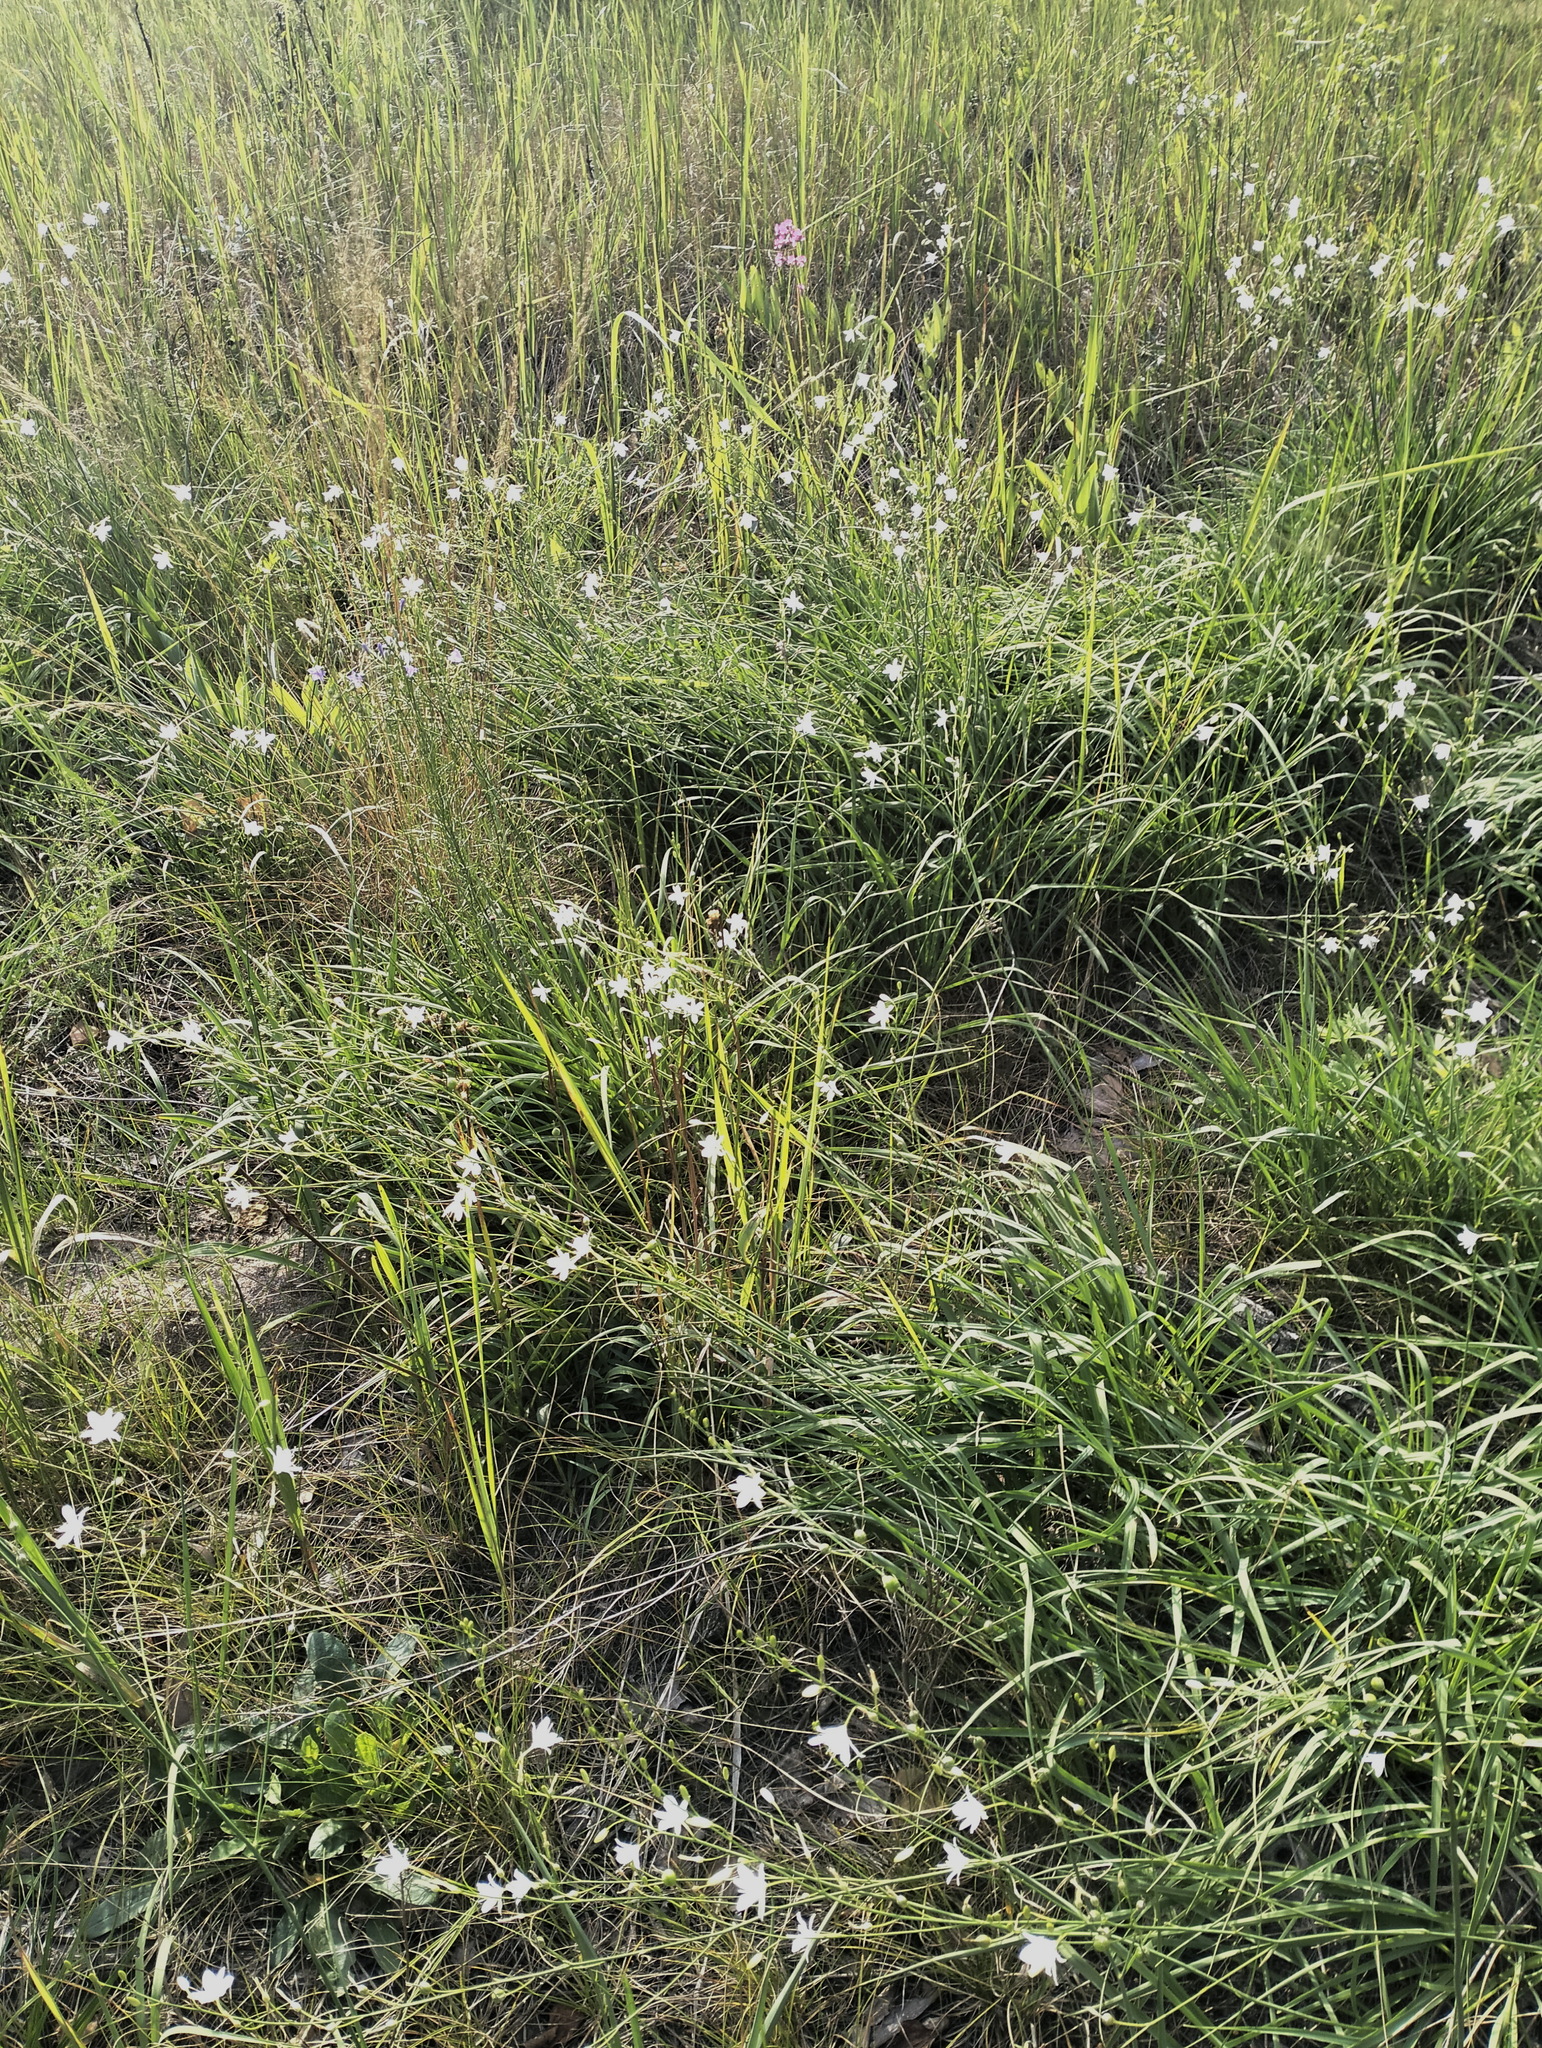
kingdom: Plantae
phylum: Tracheophyta
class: Liliopsida
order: Asparagales
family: Asparagaceae
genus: Anthericum
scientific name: Anthericum ramosum
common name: Branched st. bernard's-lily
